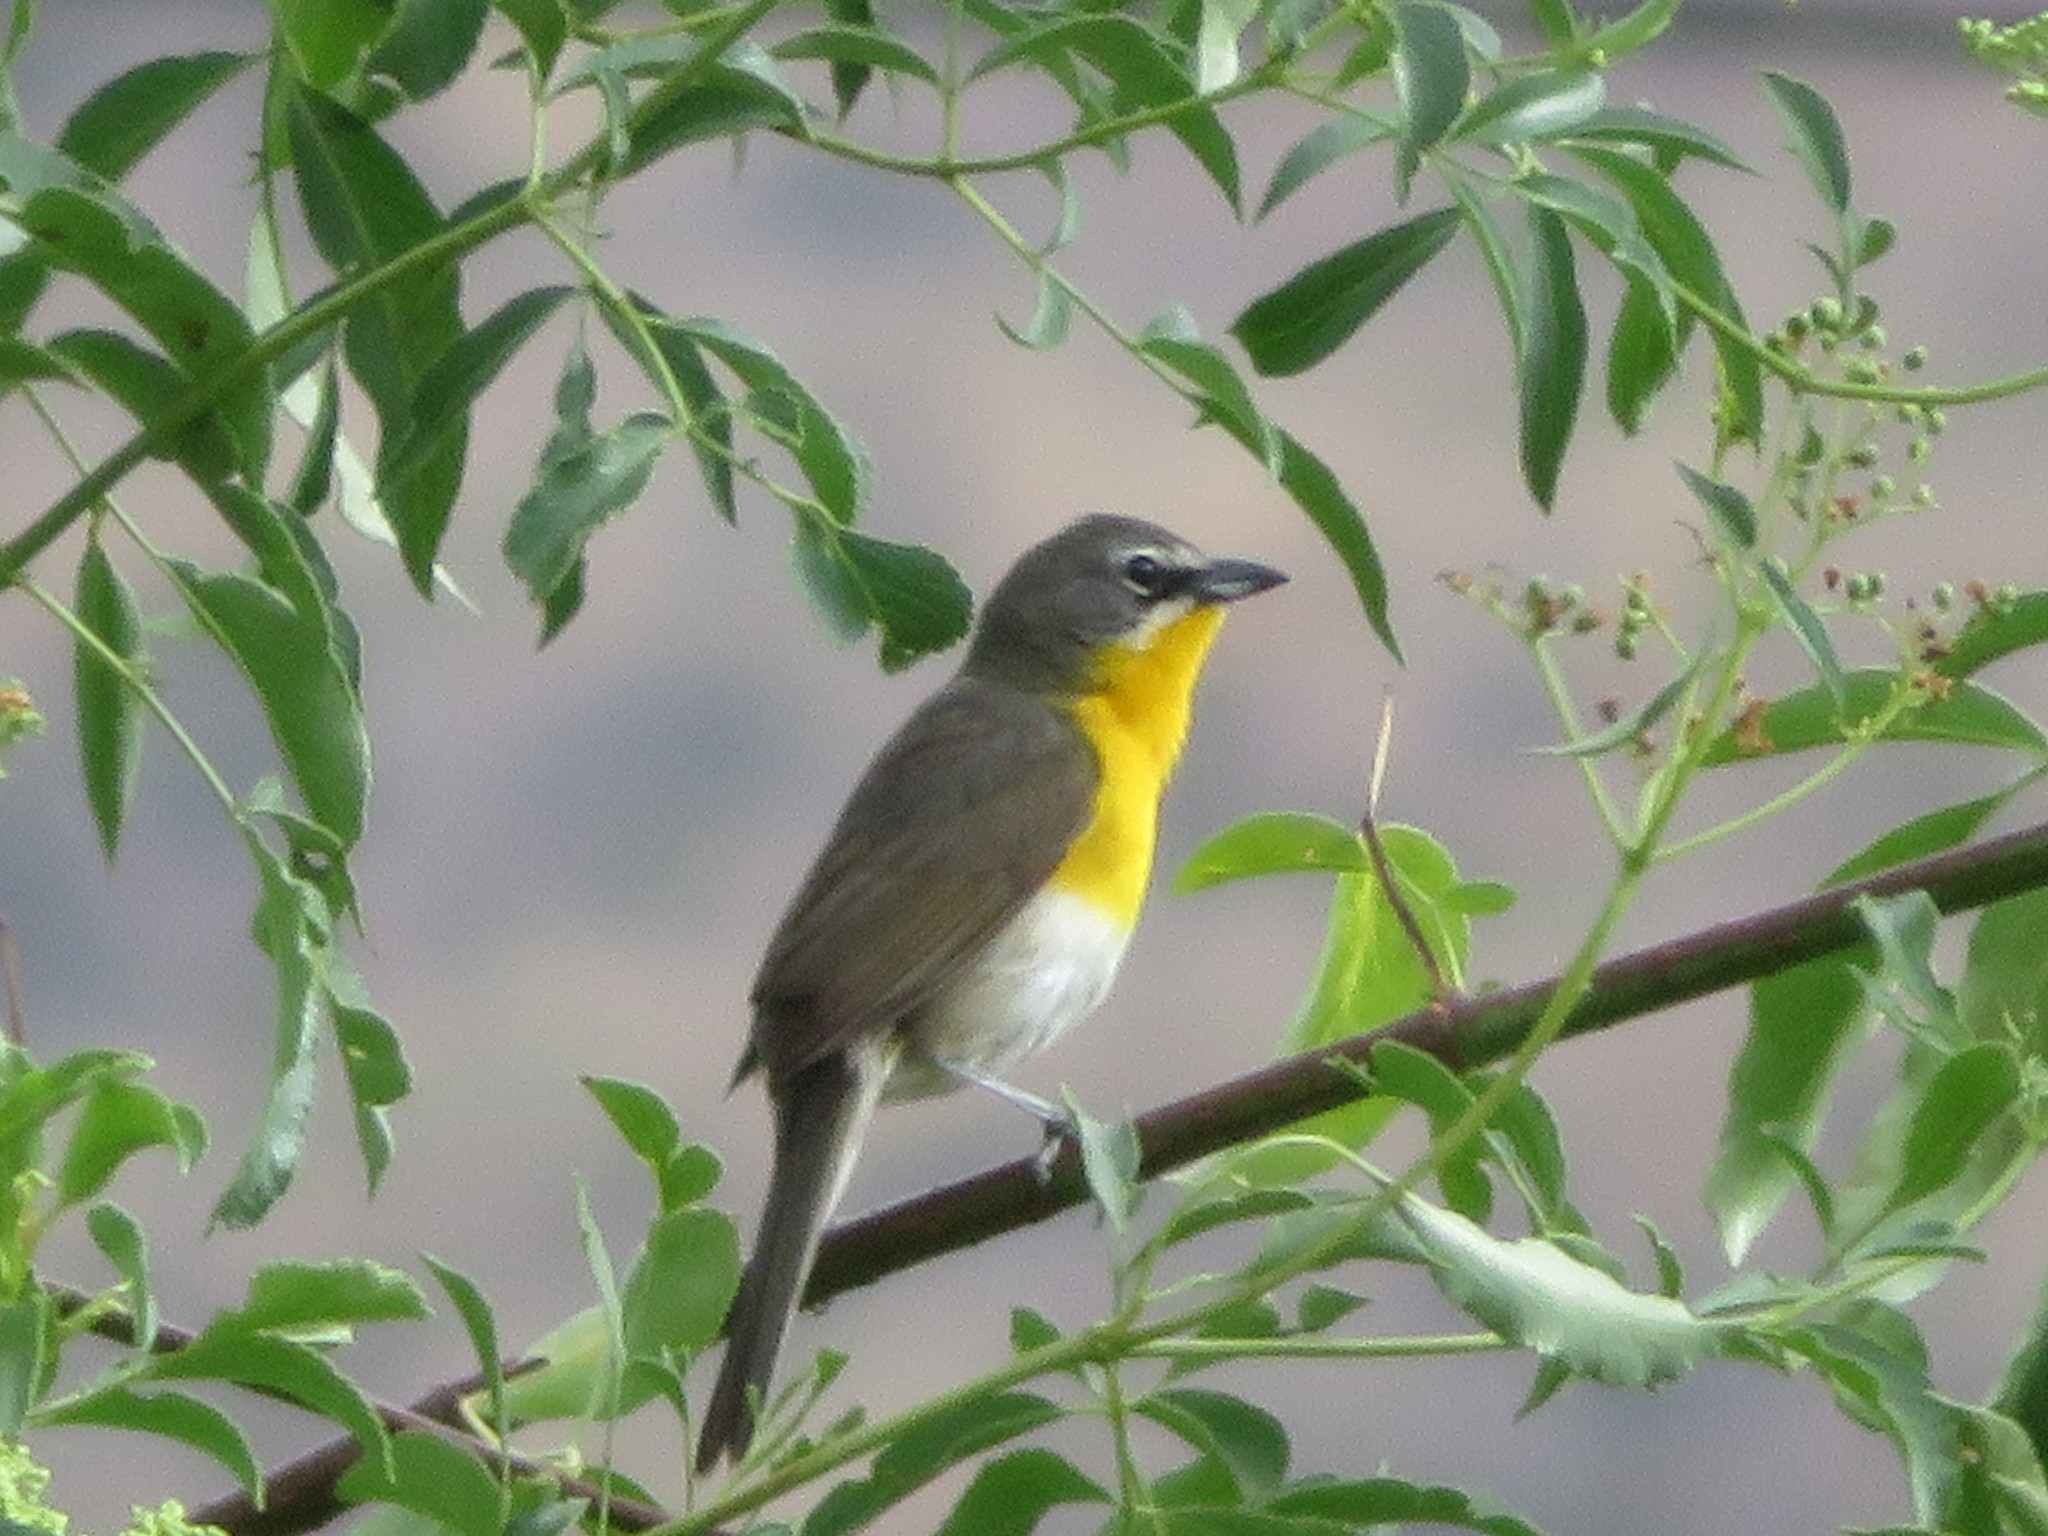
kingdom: Animalia
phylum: Chordata
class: Aves
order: Passeriformes
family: Parulidae
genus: Icteria
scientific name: Icteria virens
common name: Yellow-breasted chat
